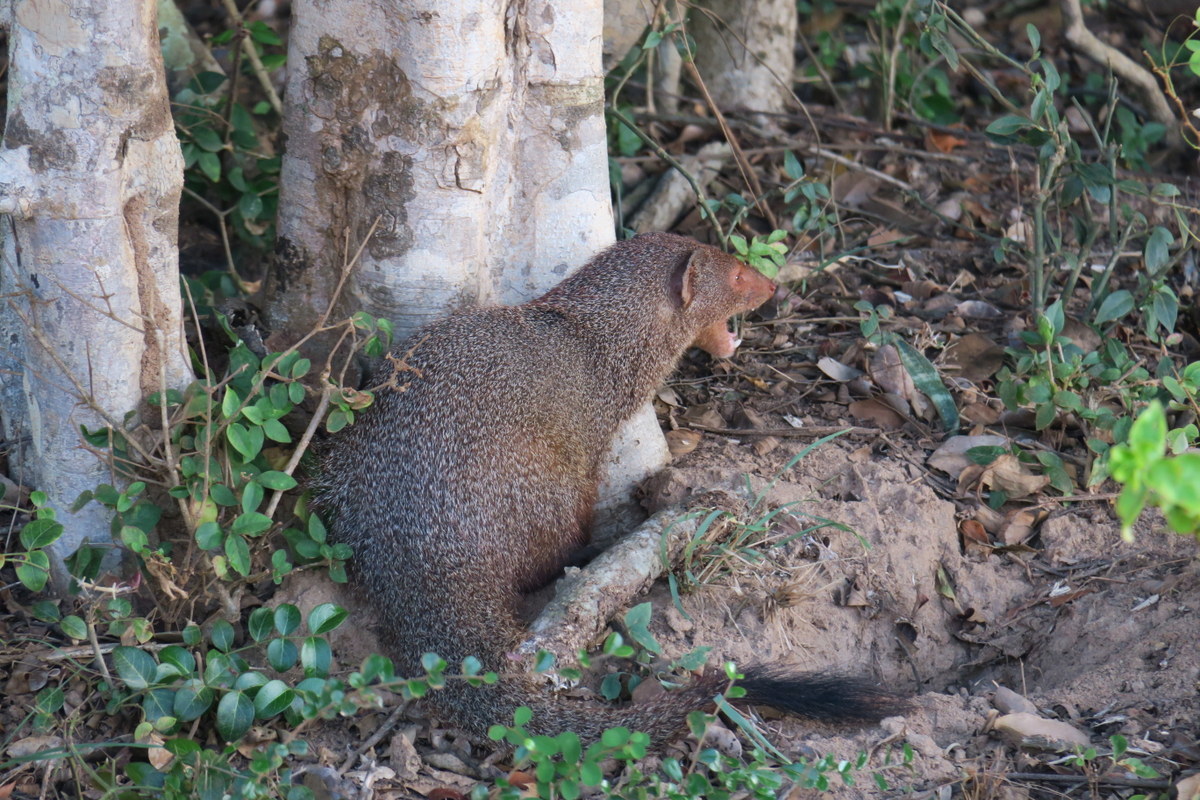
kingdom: Animalia
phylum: Chordata
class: Mammalia
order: Carnivora
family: Herpestidae
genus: Herpestes
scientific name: Herpestes smithii
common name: Ruddy mongoose
